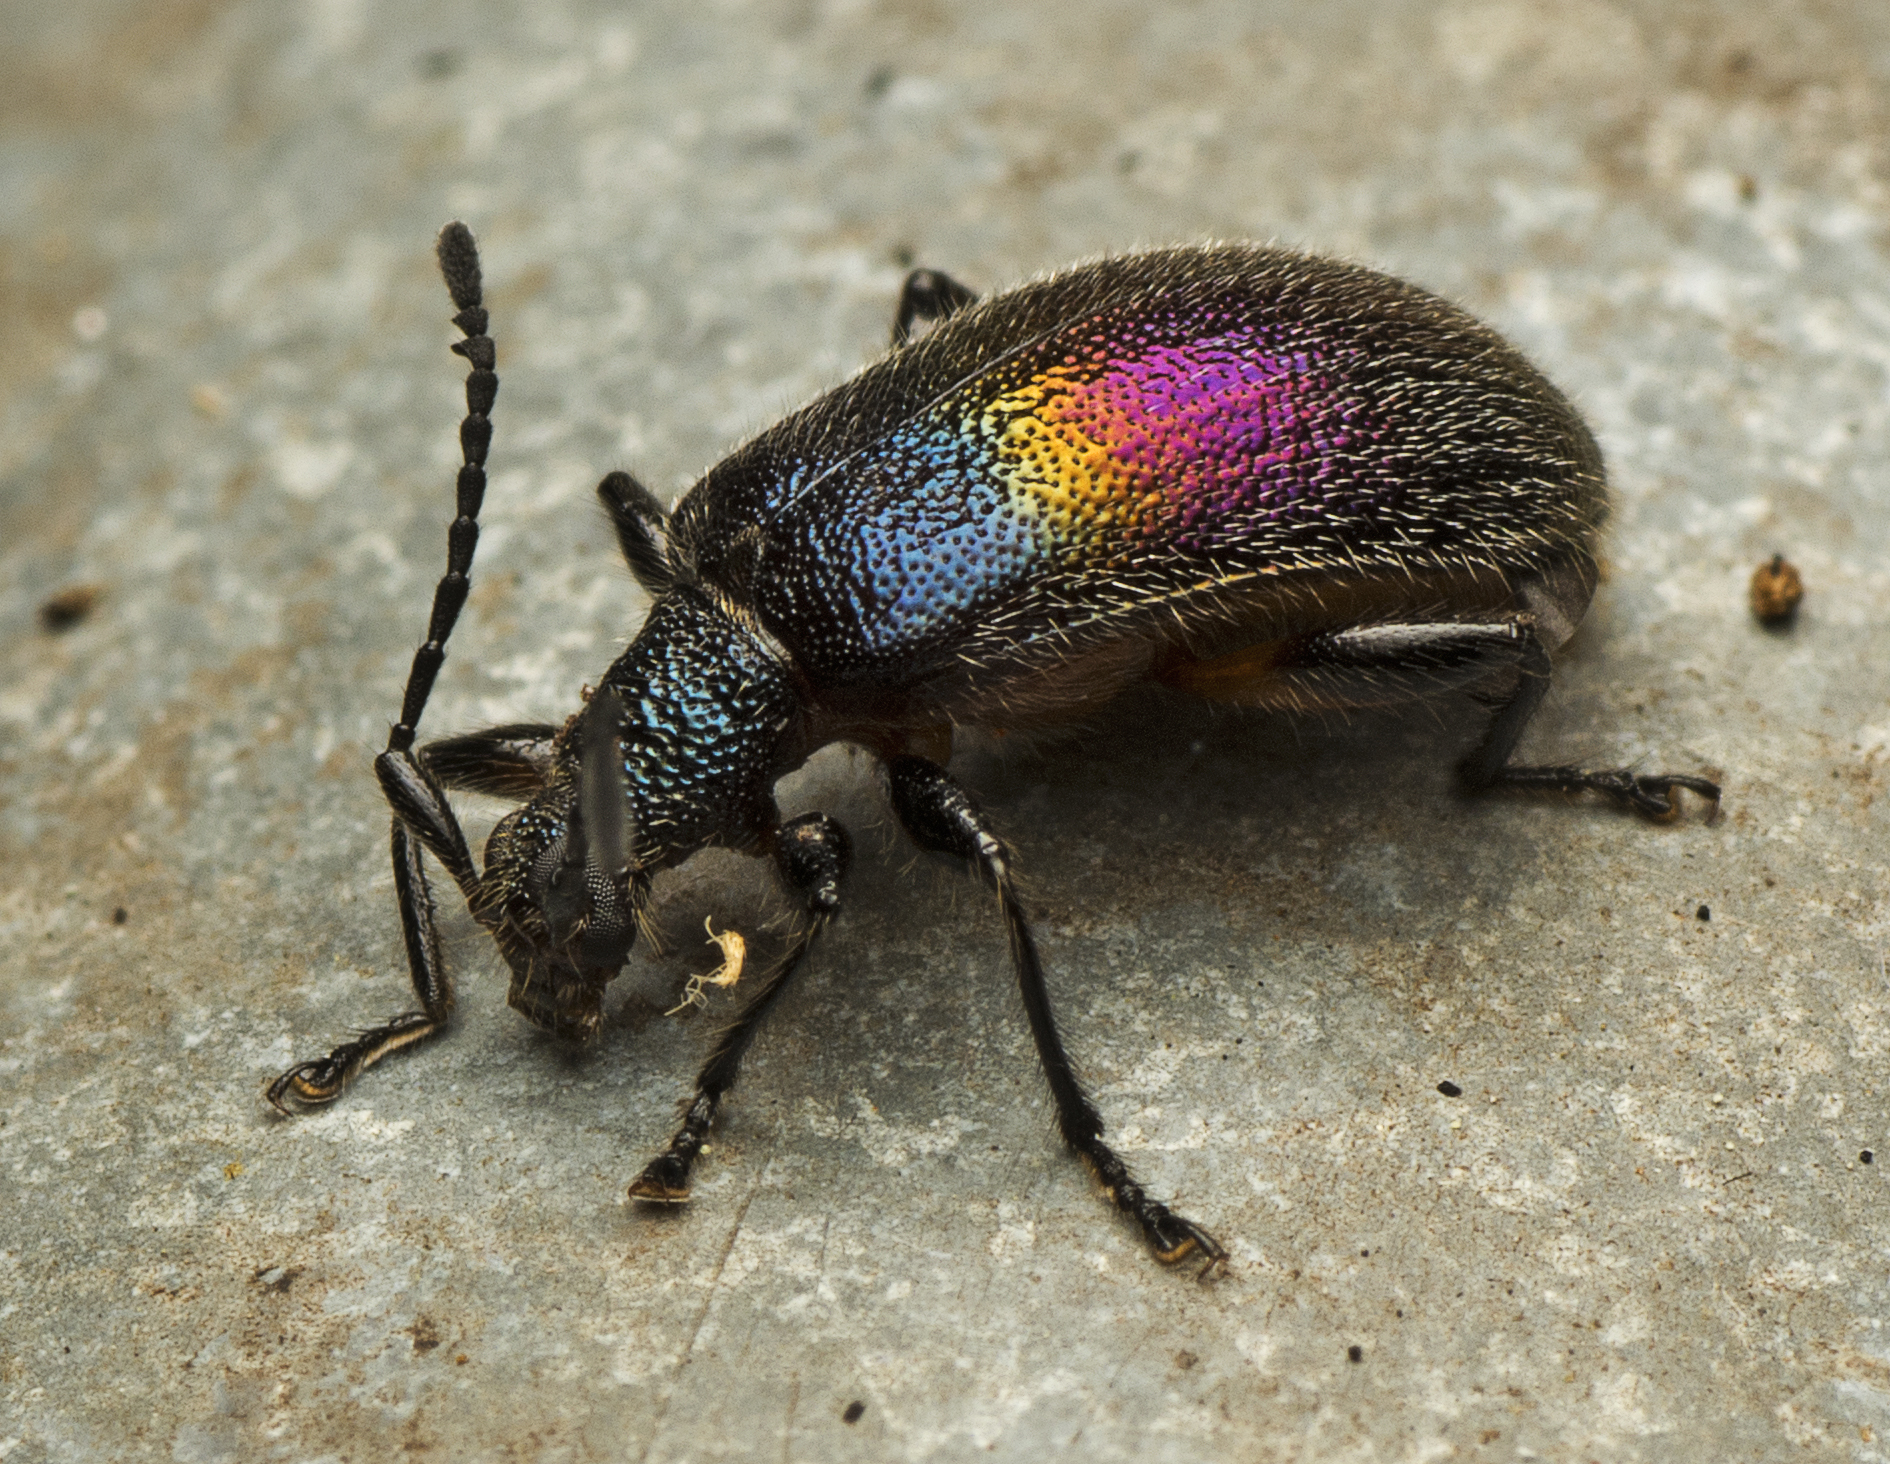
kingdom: Animalia
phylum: Arthropoda
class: Insecta
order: Coleoptera
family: Tenebrionidae
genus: Ecnolagria
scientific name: Ecnolagria
